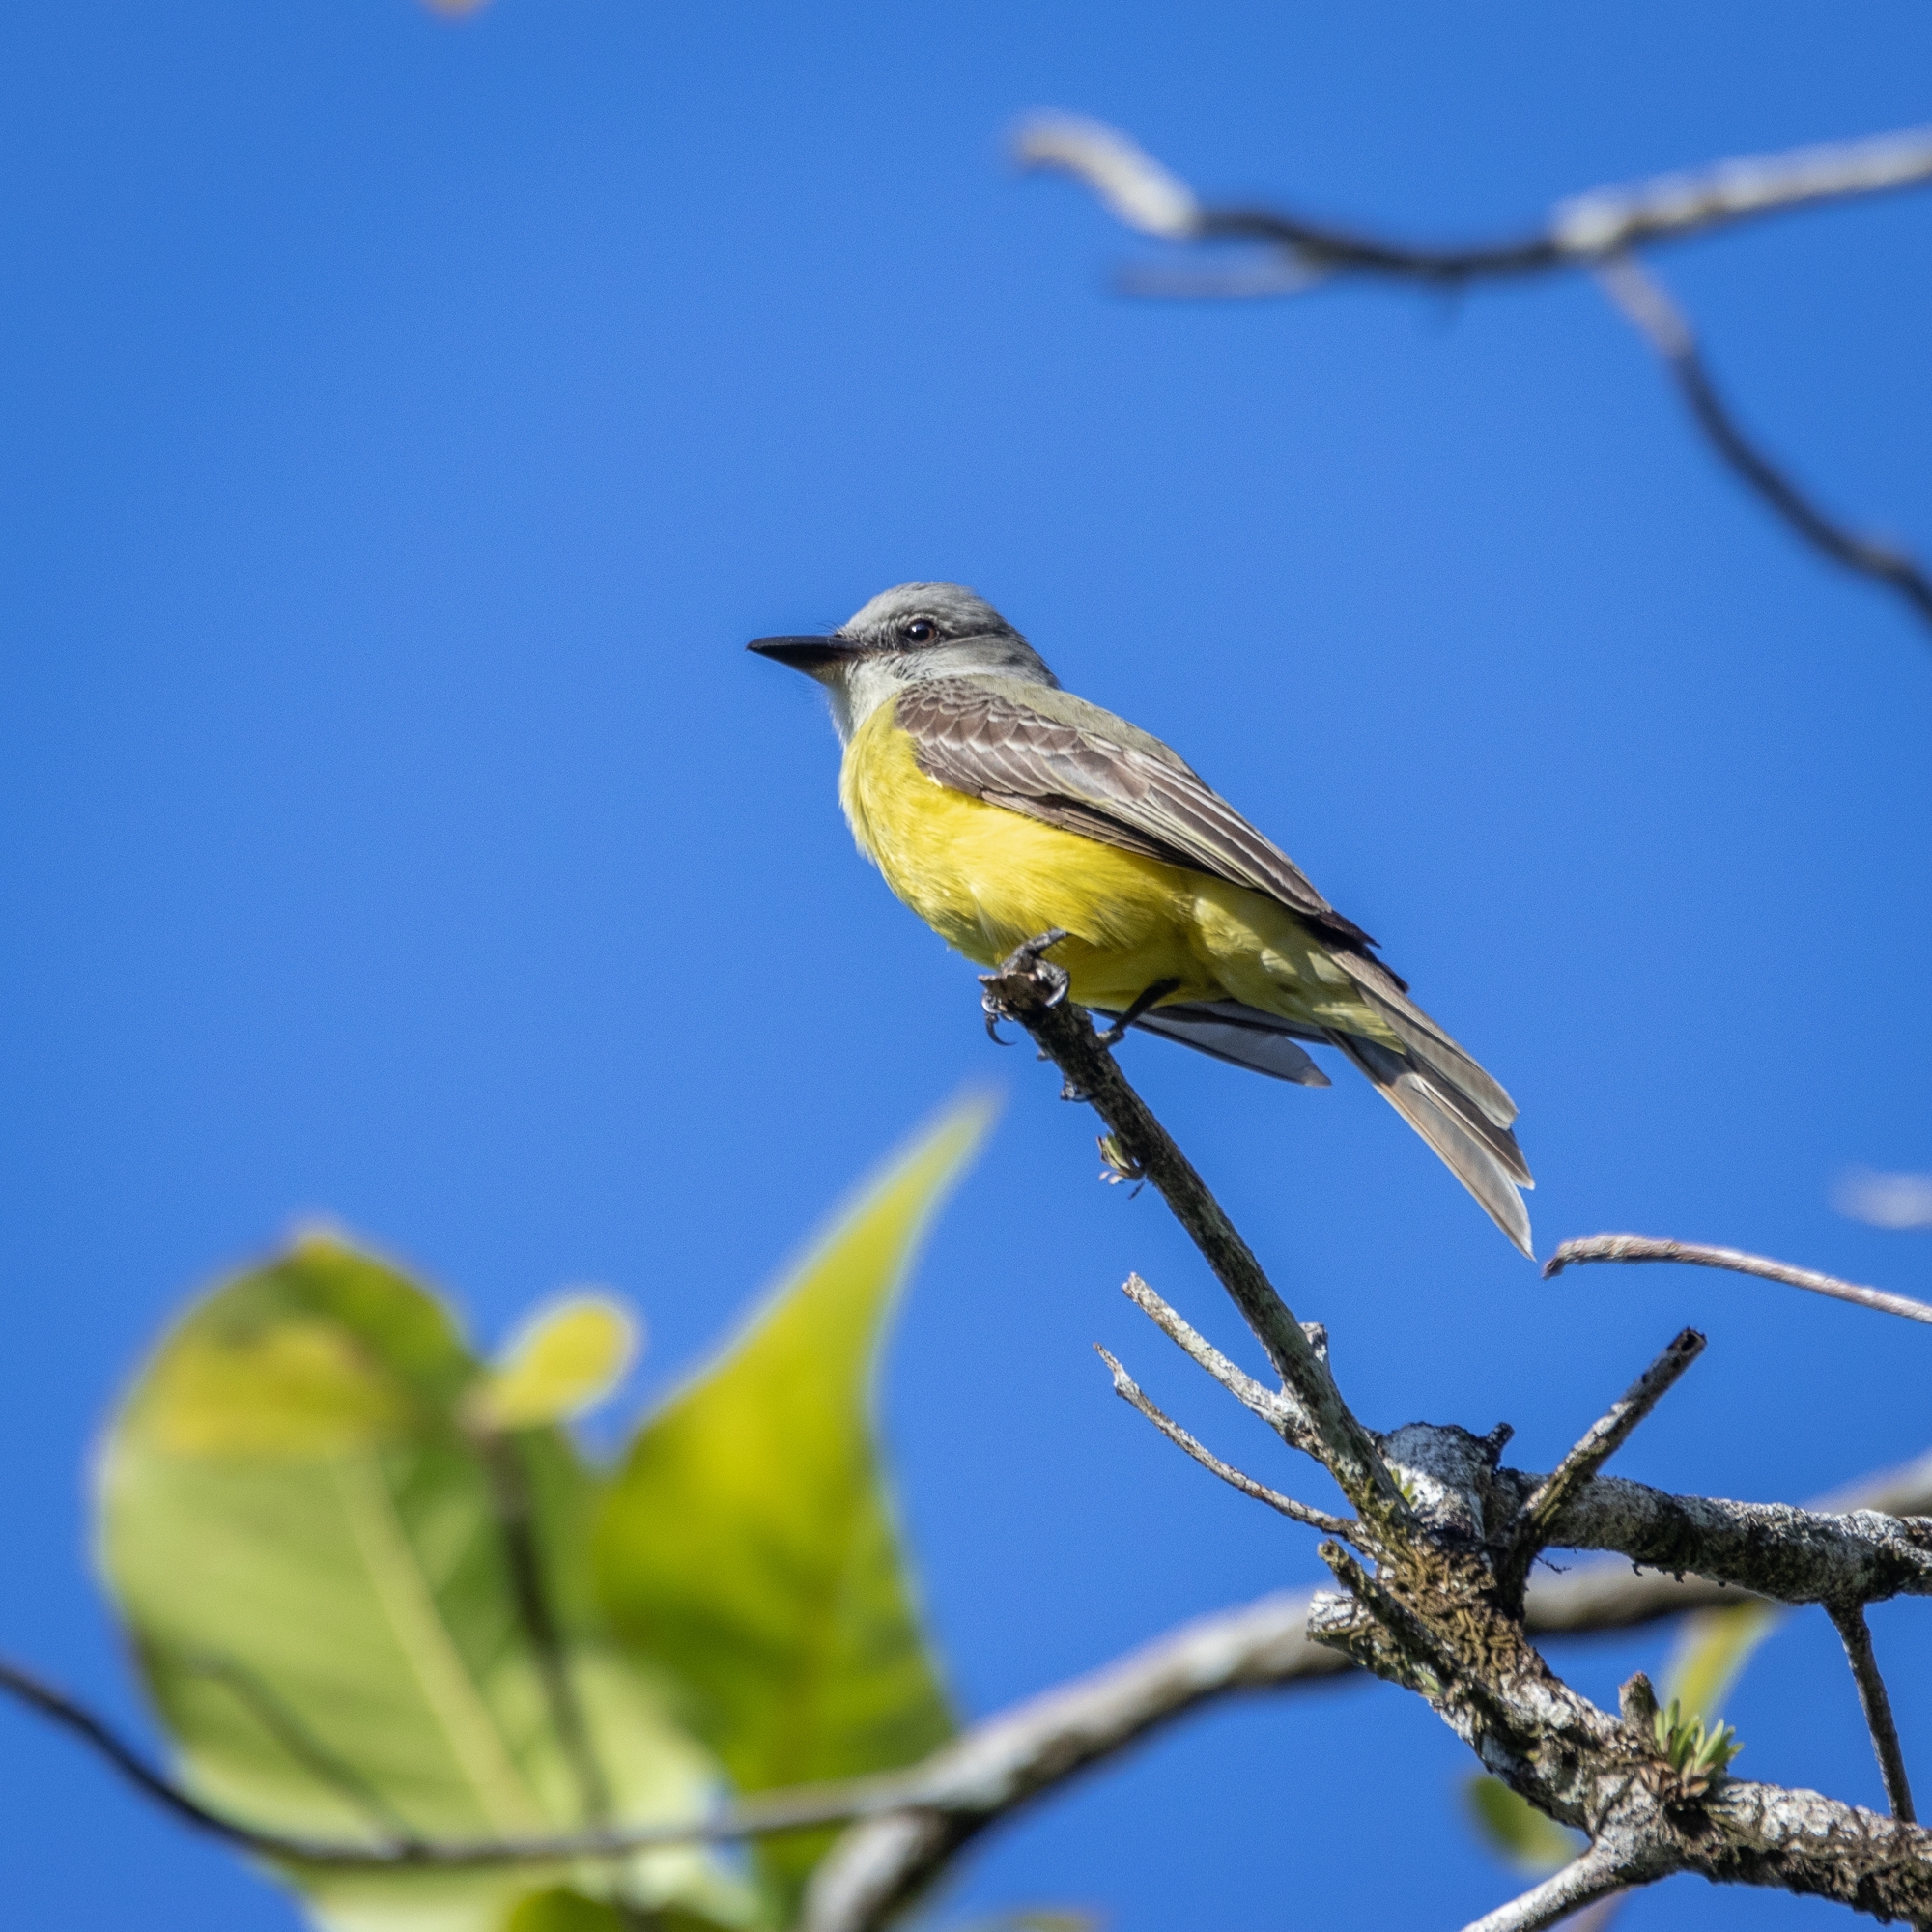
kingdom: Animalia
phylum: Chordata
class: Aves
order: Passeriformes
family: Tyrannidae
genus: Tyrannus
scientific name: Tyrannus melancholicus
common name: Tropical kingbird
